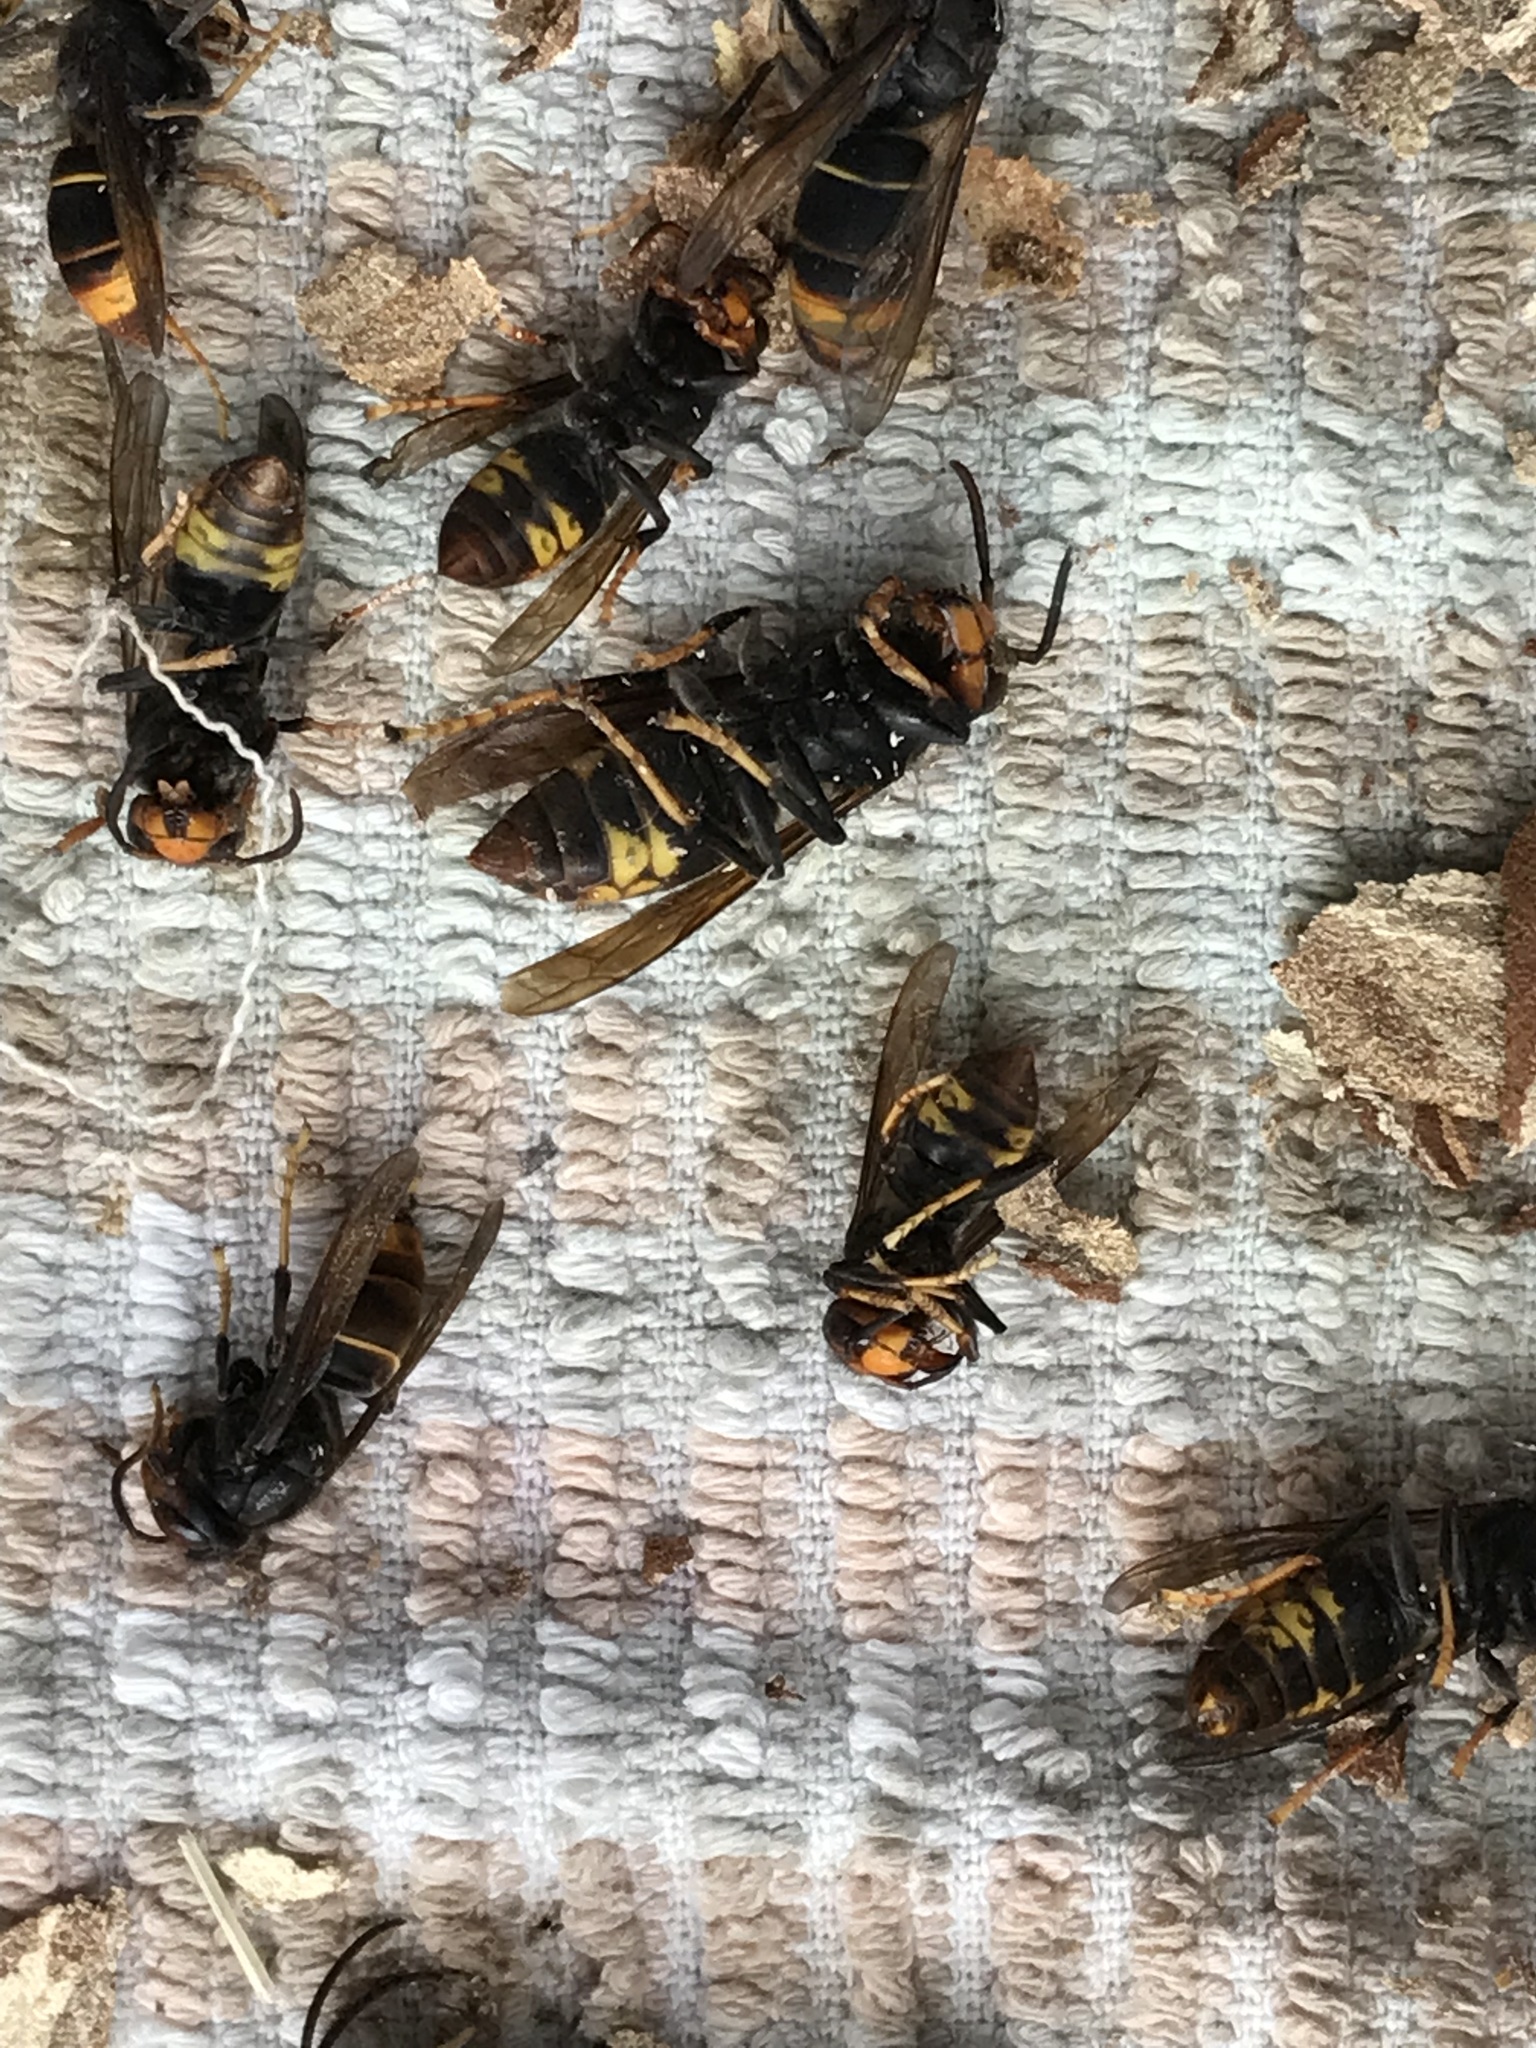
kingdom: Animalia
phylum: Arthropoda
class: Insecta
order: Hymenoptera
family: Vespidae
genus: Vespa
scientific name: Vespa velutina
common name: Asian hornet
